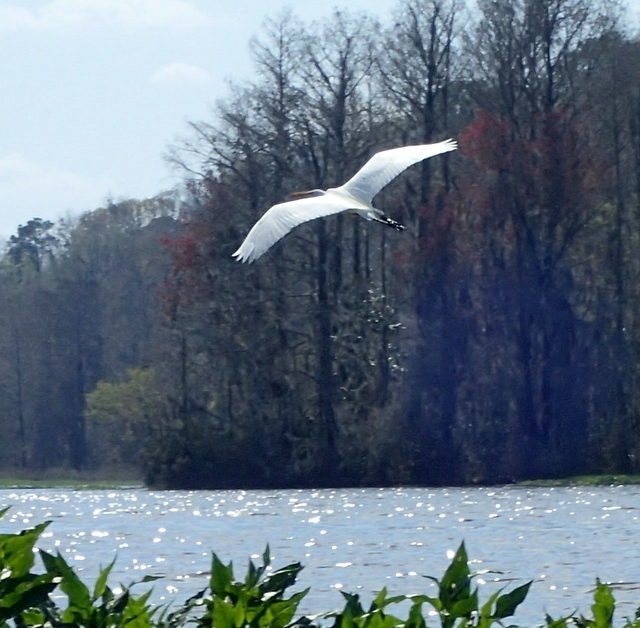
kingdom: Animalia
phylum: Chordata
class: Aves
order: Pelecaniformes
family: Ardeidae
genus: Ardea
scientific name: Ardea alba
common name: Great egret
